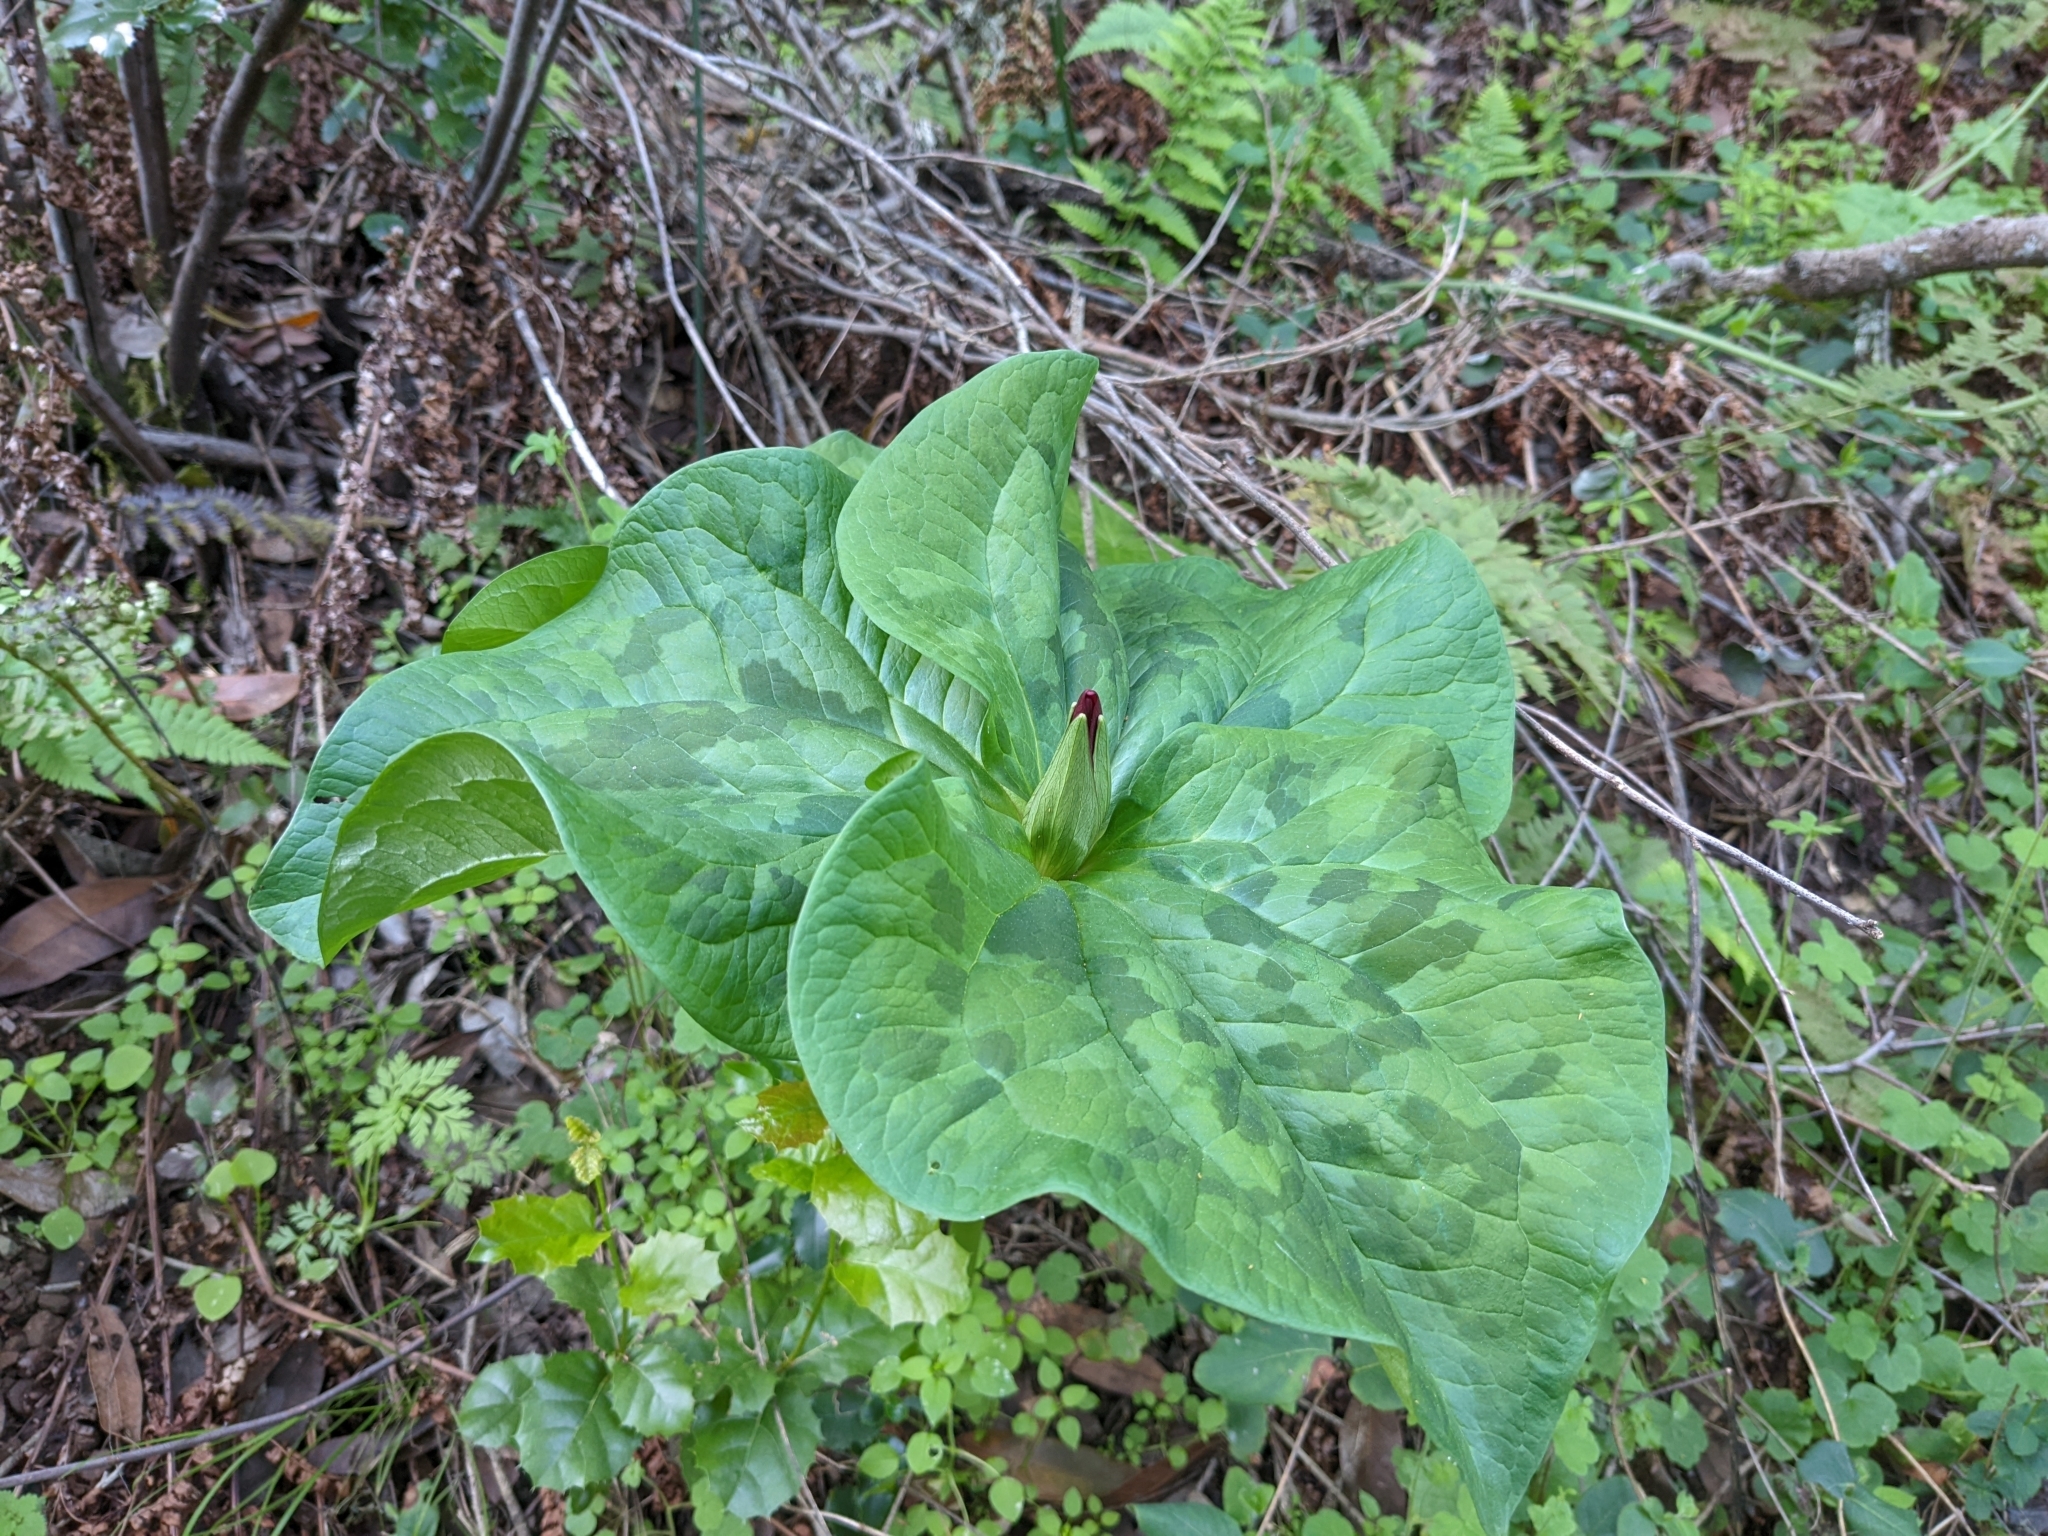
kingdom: Plantae
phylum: Tracheophyta
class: Liliopsida
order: Liliales
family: Melanthiaceae
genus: Trillium
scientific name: Trillium chloropetalum
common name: Giant trillium
